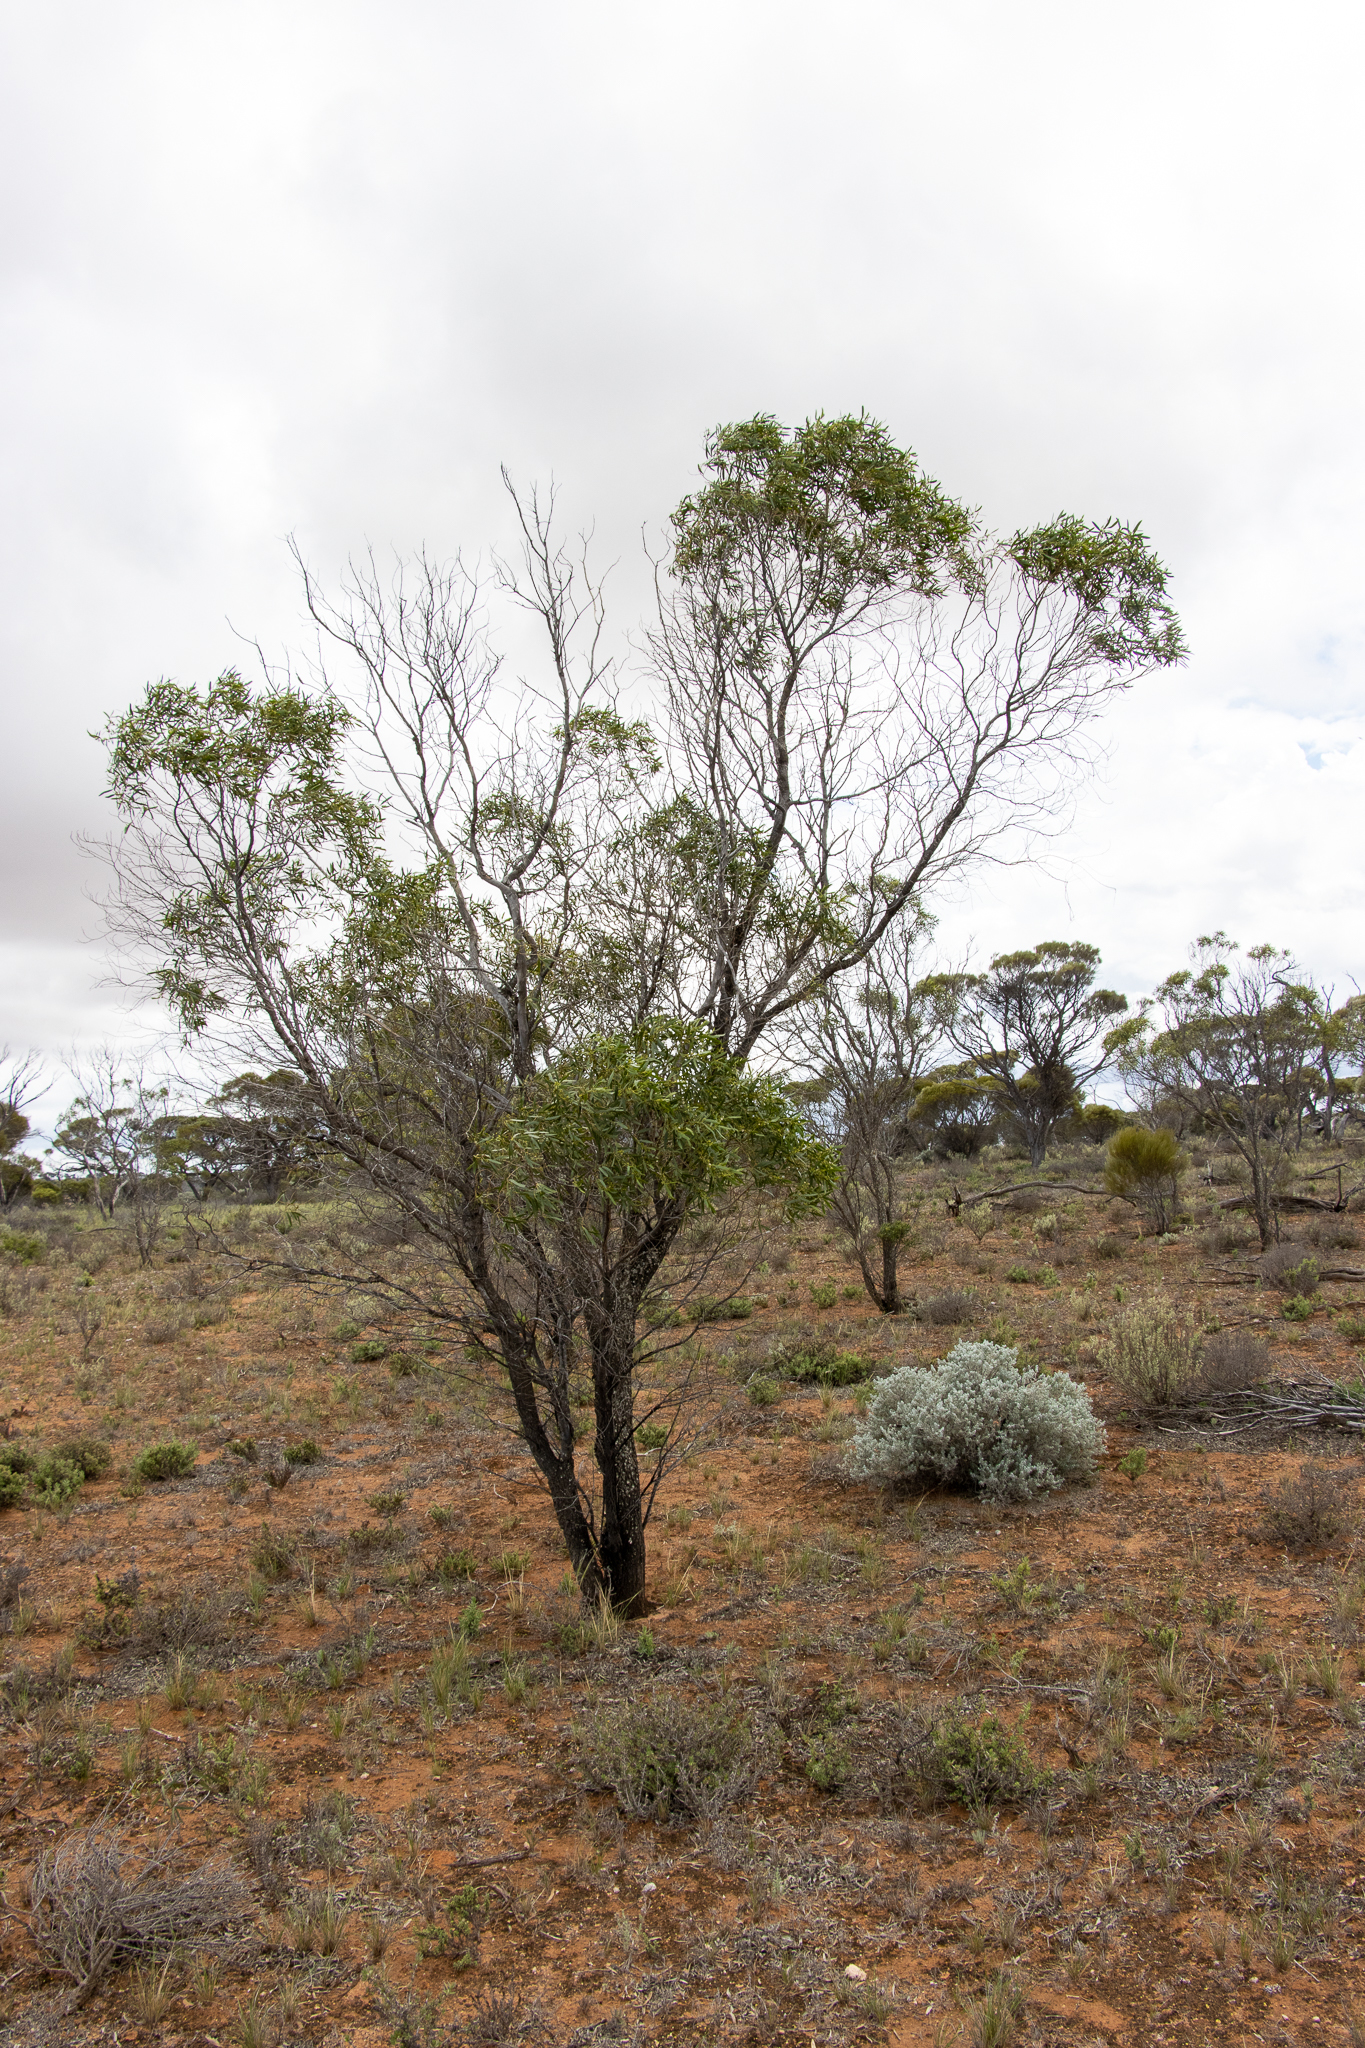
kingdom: Plantae
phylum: Tracheophyta
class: Magnoliopsida
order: Lamiales
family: Scrophulariaceae
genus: Myoporum
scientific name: Myoporum platycarpum
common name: Sugartree
